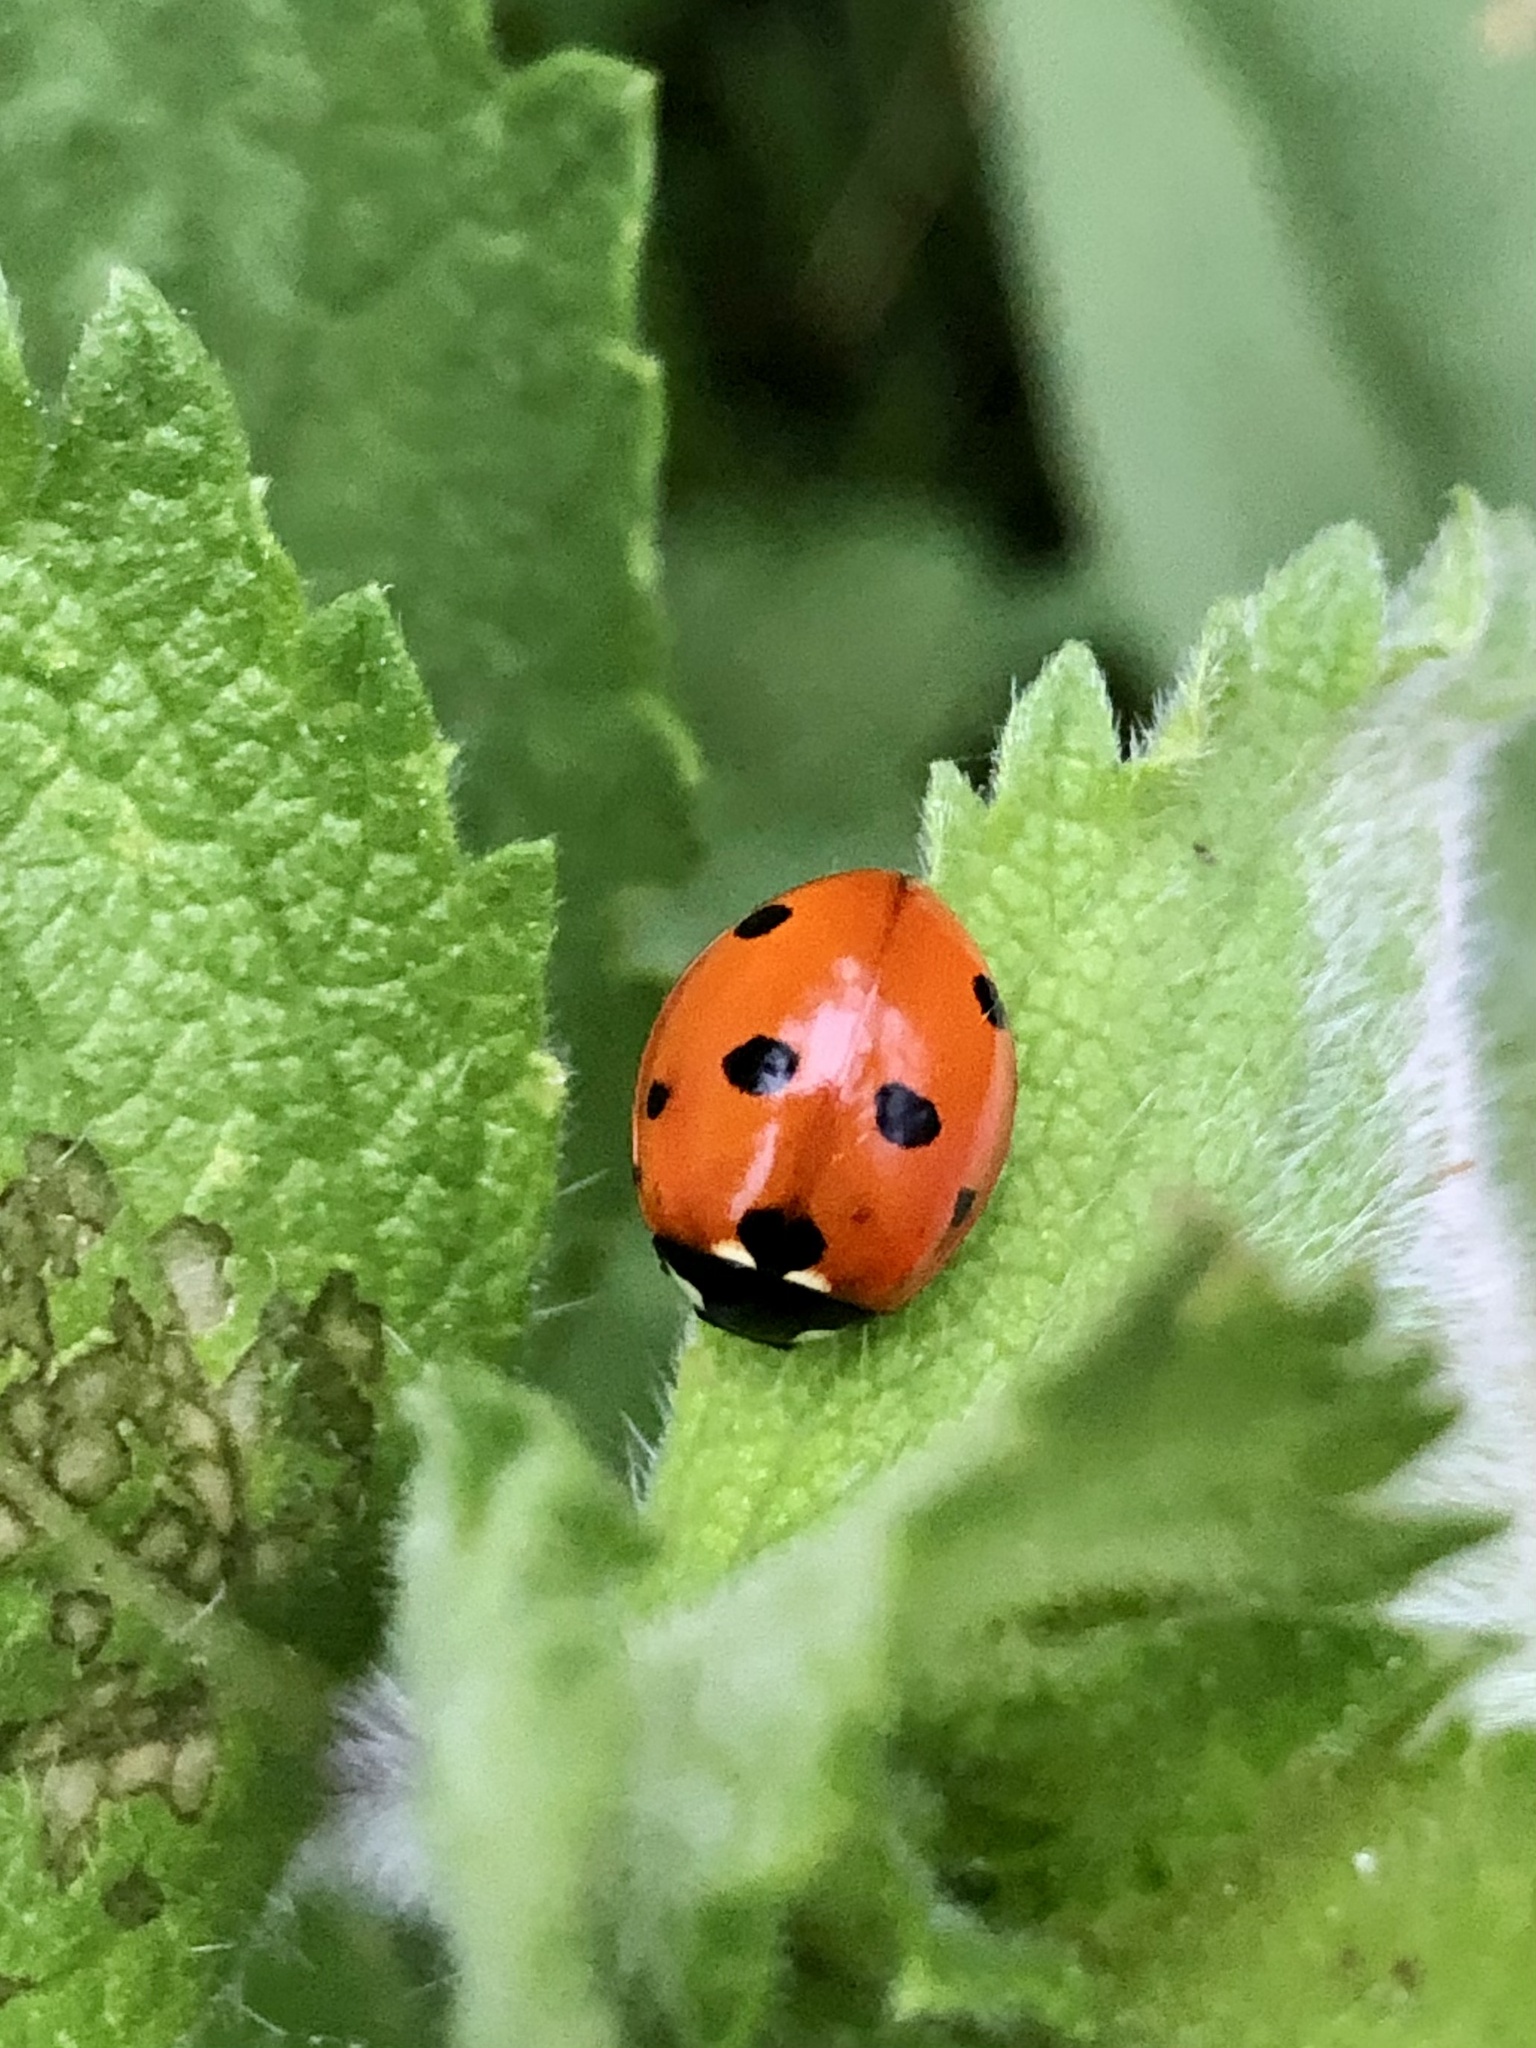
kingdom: Animalia
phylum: Arthropoda
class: Insecta
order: Coleoptera
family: Coccinellidae
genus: Coccinella
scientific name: Coccinella septempunctata
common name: Sevenspotted lady beetle
